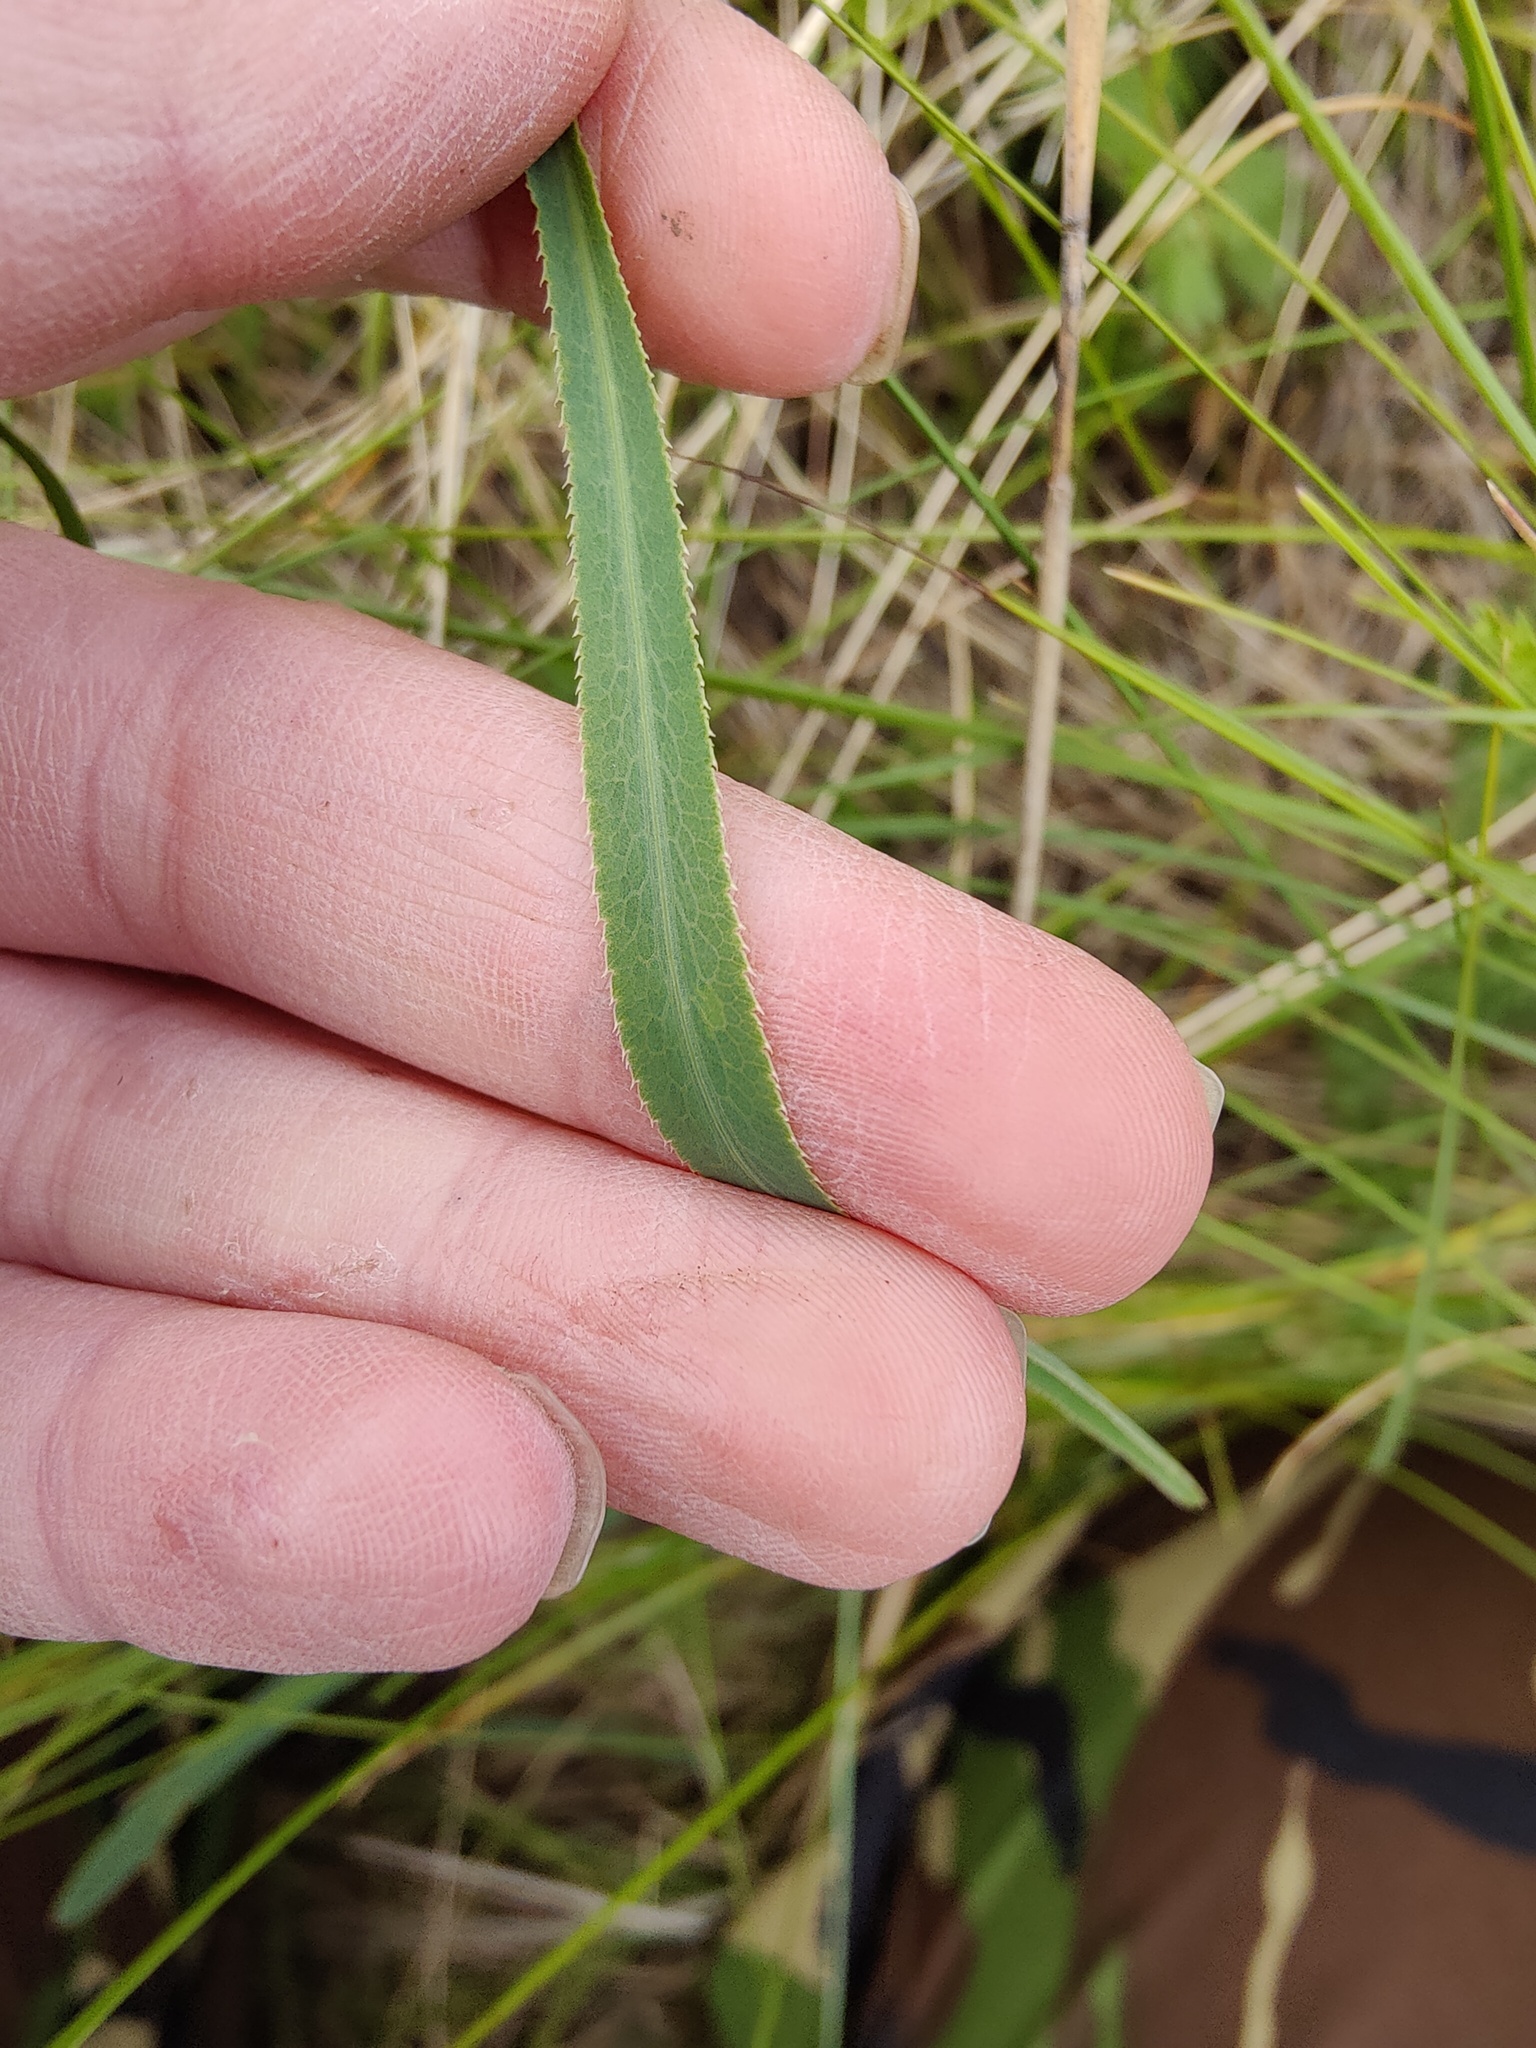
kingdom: Plantae
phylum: Tracheophyta
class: Magnoliopsida
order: Apiales
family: Apiaceae
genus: Falcaria
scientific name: Falcaria vulgaris
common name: Longleaf
